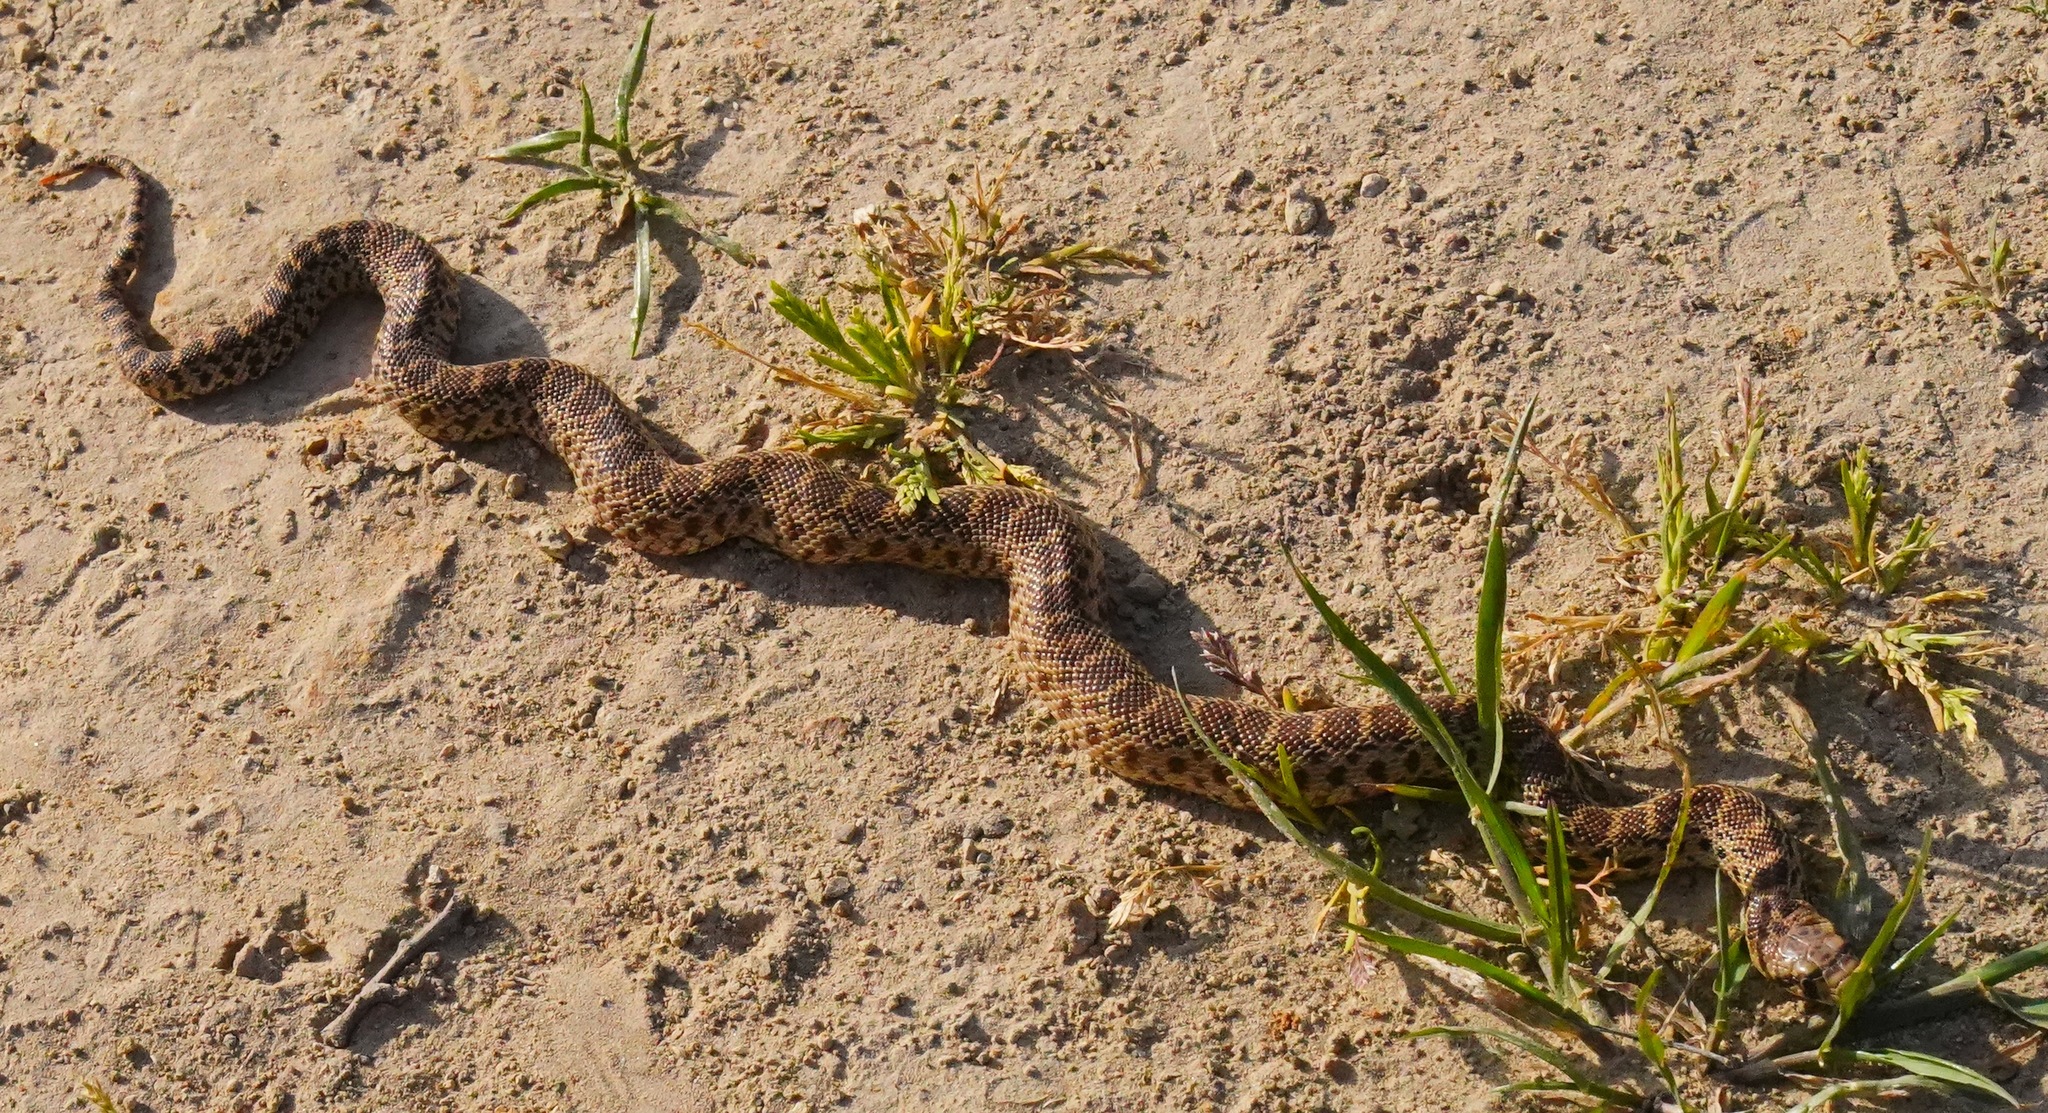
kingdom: Animalia
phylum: Chordata
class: Squamata
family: Colubridae
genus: Pituophis
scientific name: Pituophis catenifer
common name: Gopher snake
